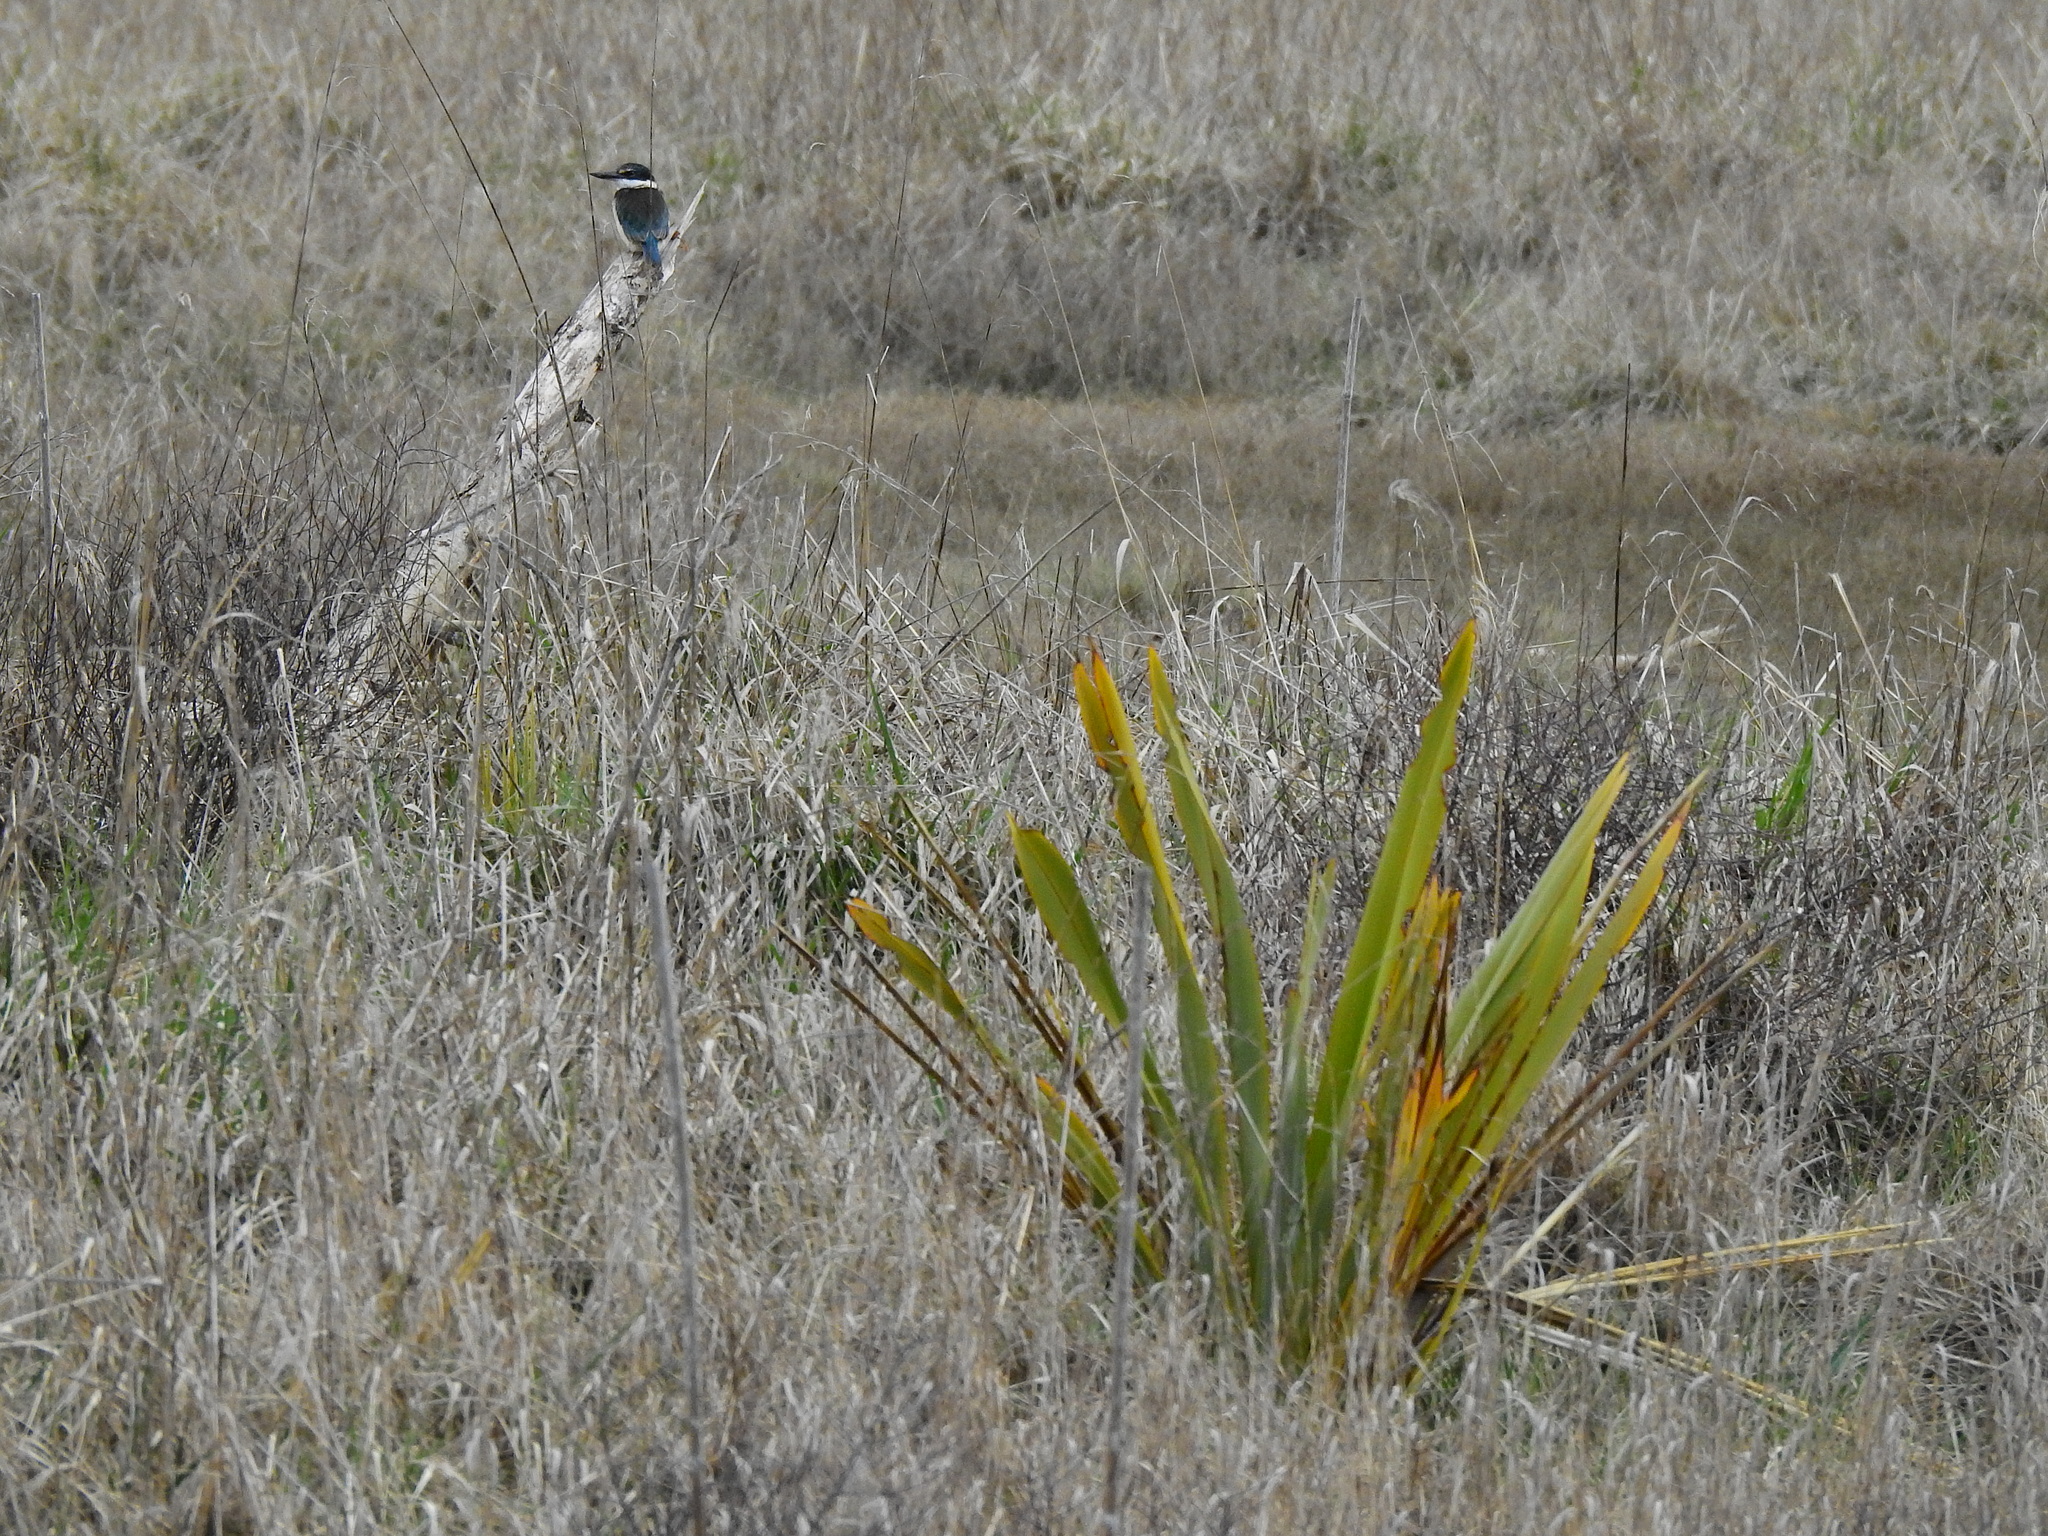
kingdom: Animalia
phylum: Chordata
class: Aves
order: Coraciiformes
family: Alcedinidae
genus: Todiramphus
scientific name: Todiramphus sanctus
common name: Sacred kingfisher
